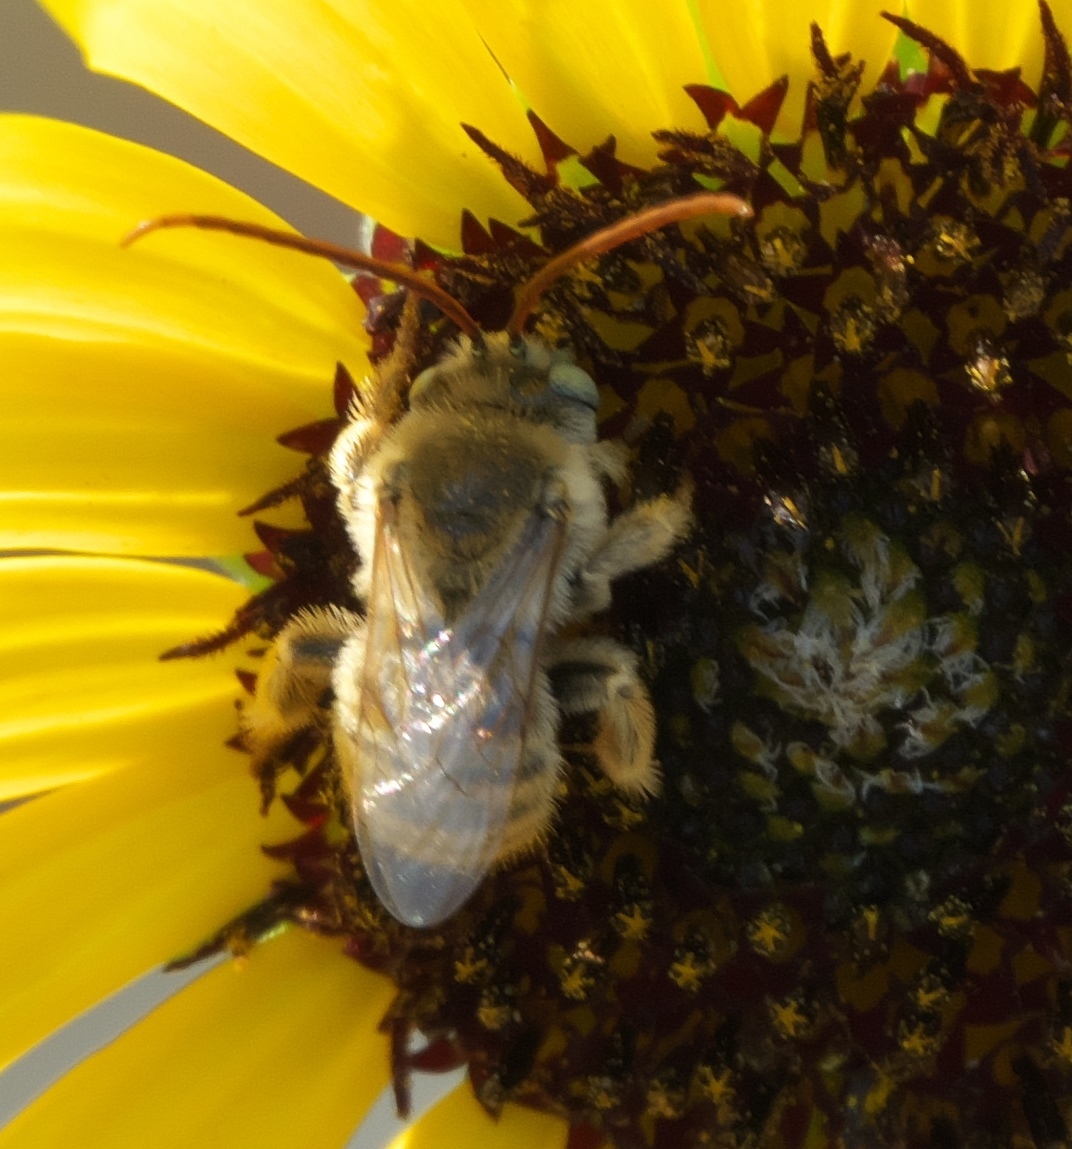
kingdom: Animalia
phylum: Arthropoda
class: Insecta
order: Hymenoptera
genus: Eumelissodes
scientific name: Eumelissodes
